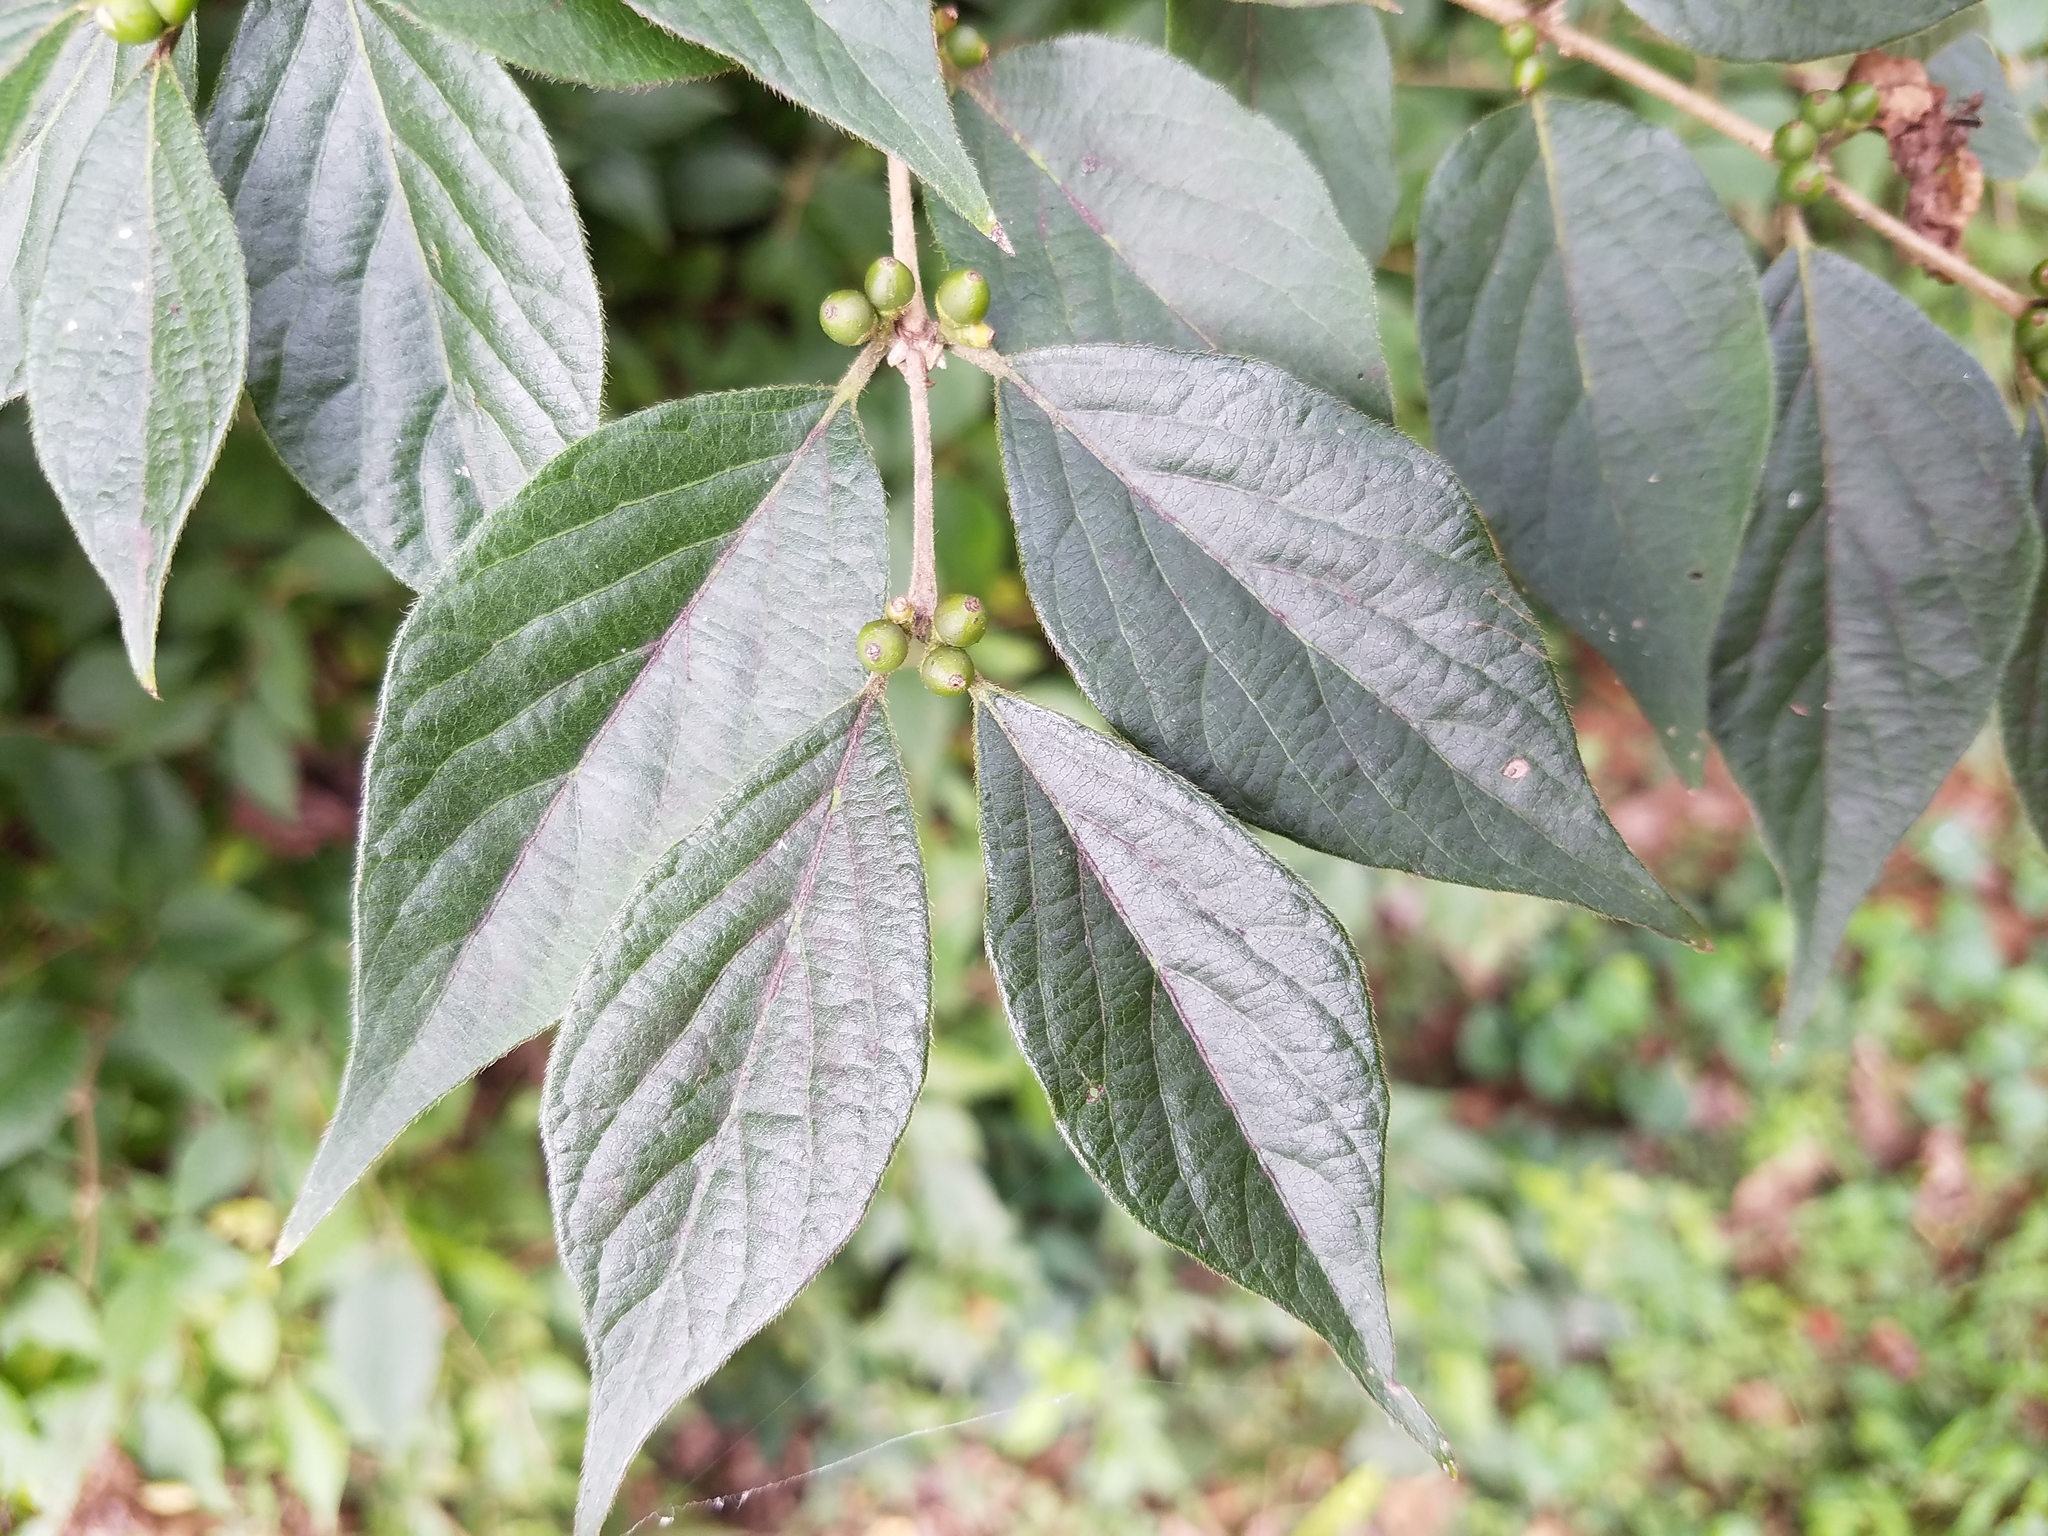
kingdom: Plantae
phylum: Tracheophyta
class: Magnoliopsida
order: Dipsacales
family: Caprifoliaceae
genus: Lonicera
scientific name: Lonicera maackii
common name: Amur honeysuckle
